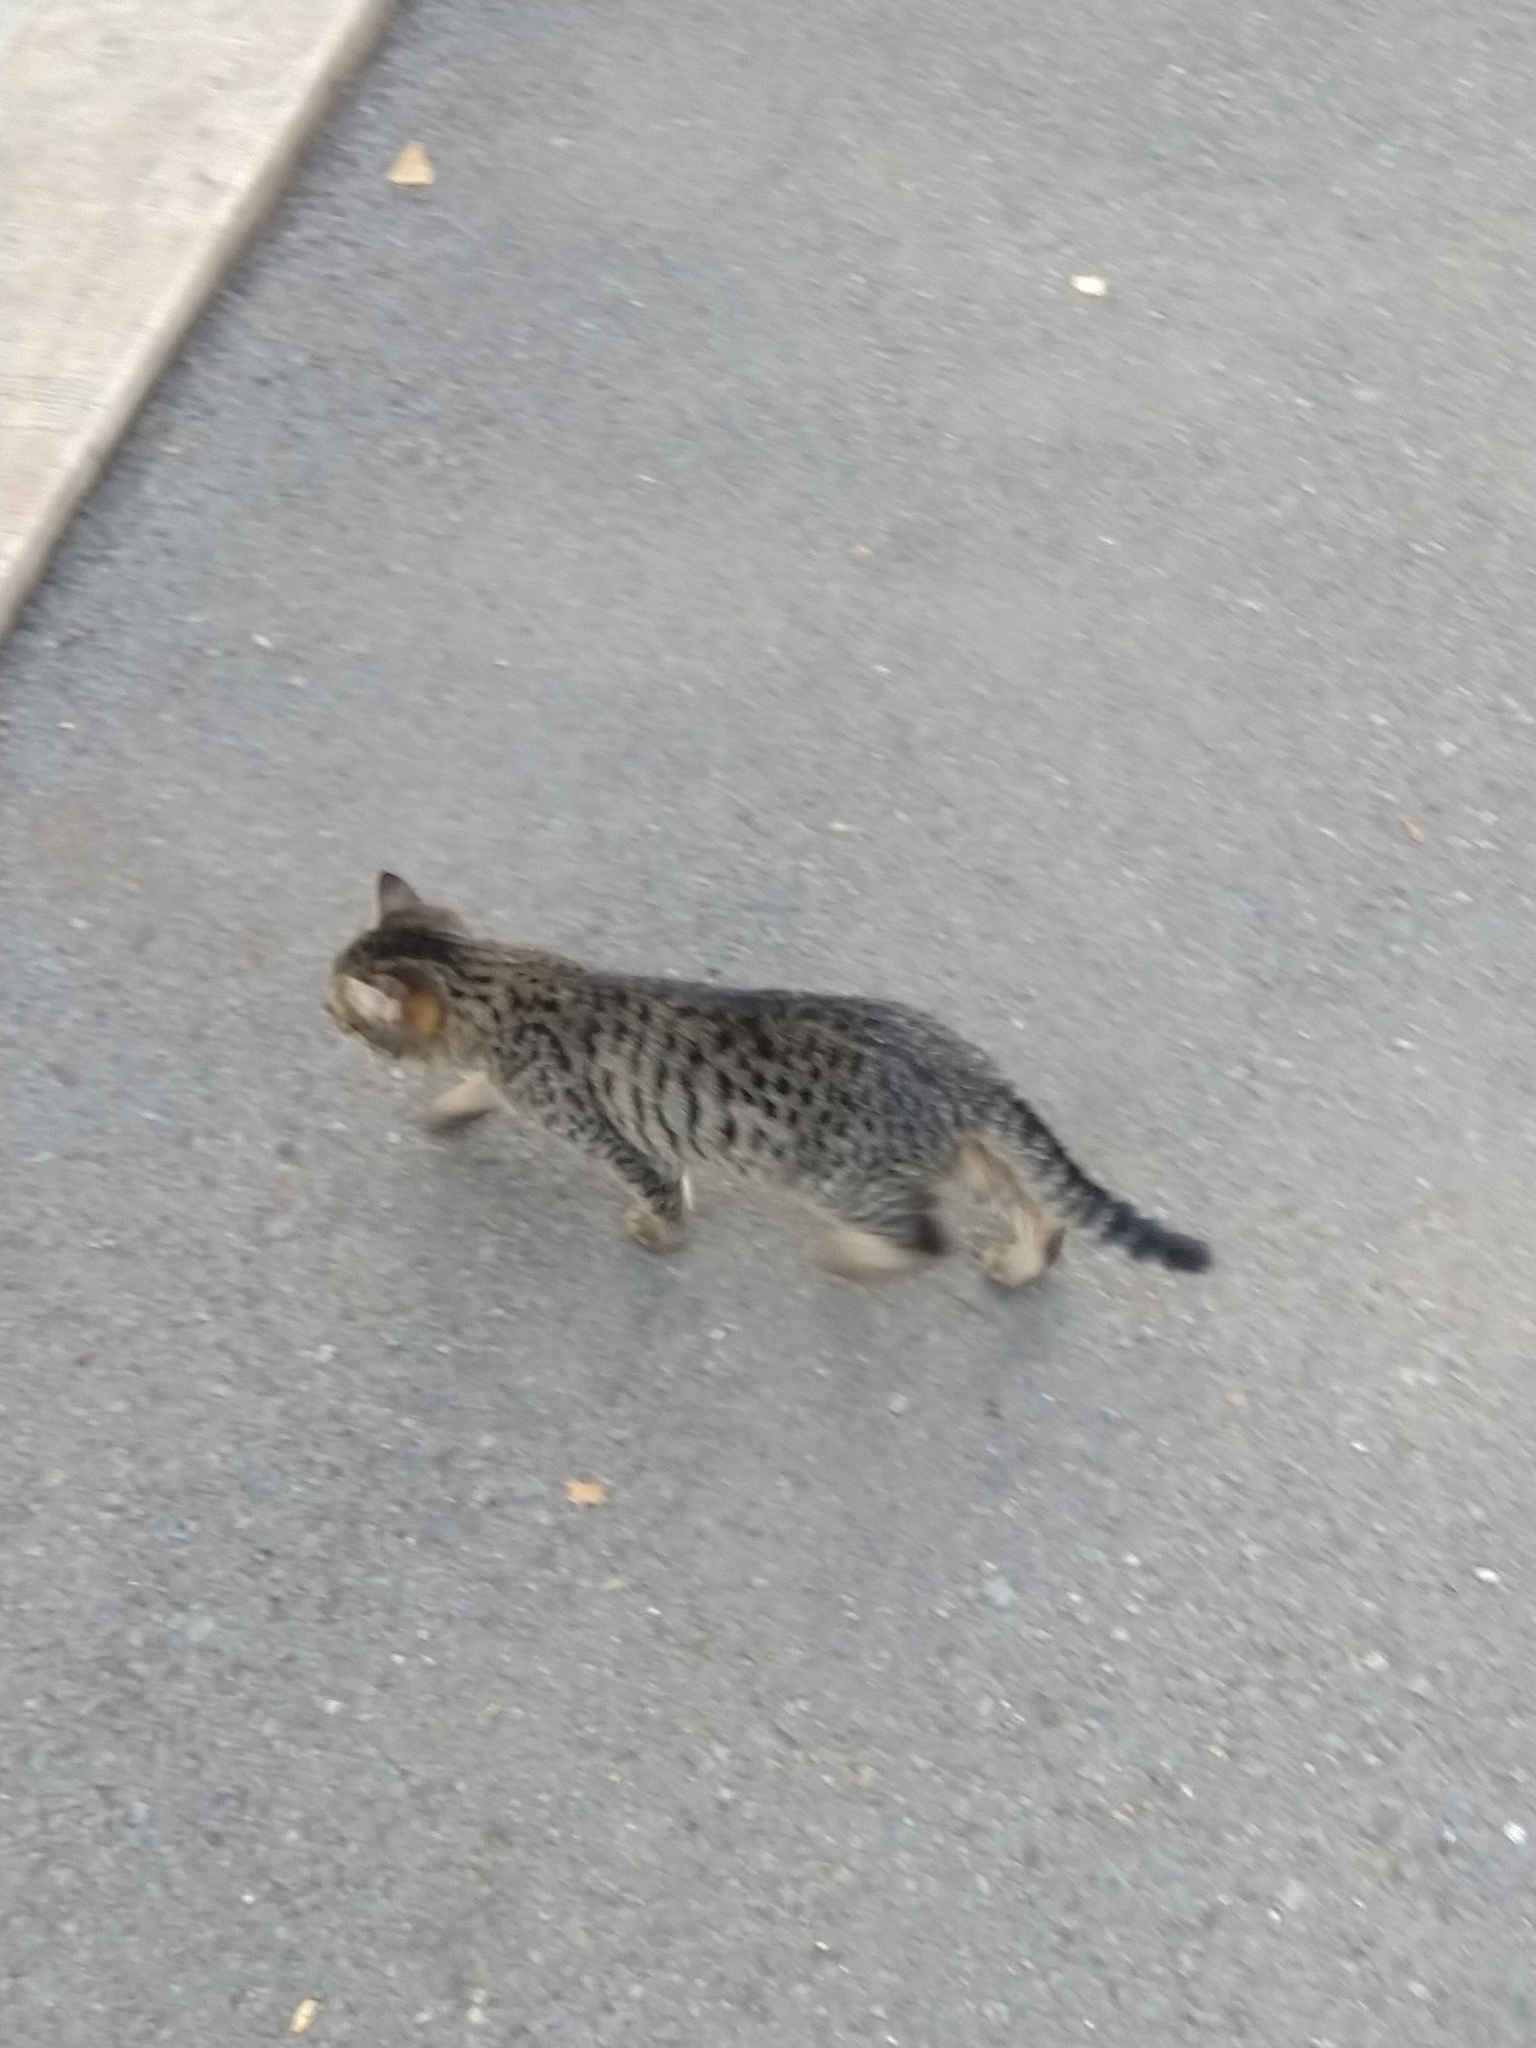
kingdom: Animalia
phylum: Chordata
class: Mammalia
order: Carnivora
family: Felidae
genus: Felis
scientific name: Felis catus
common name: Domestic cat
